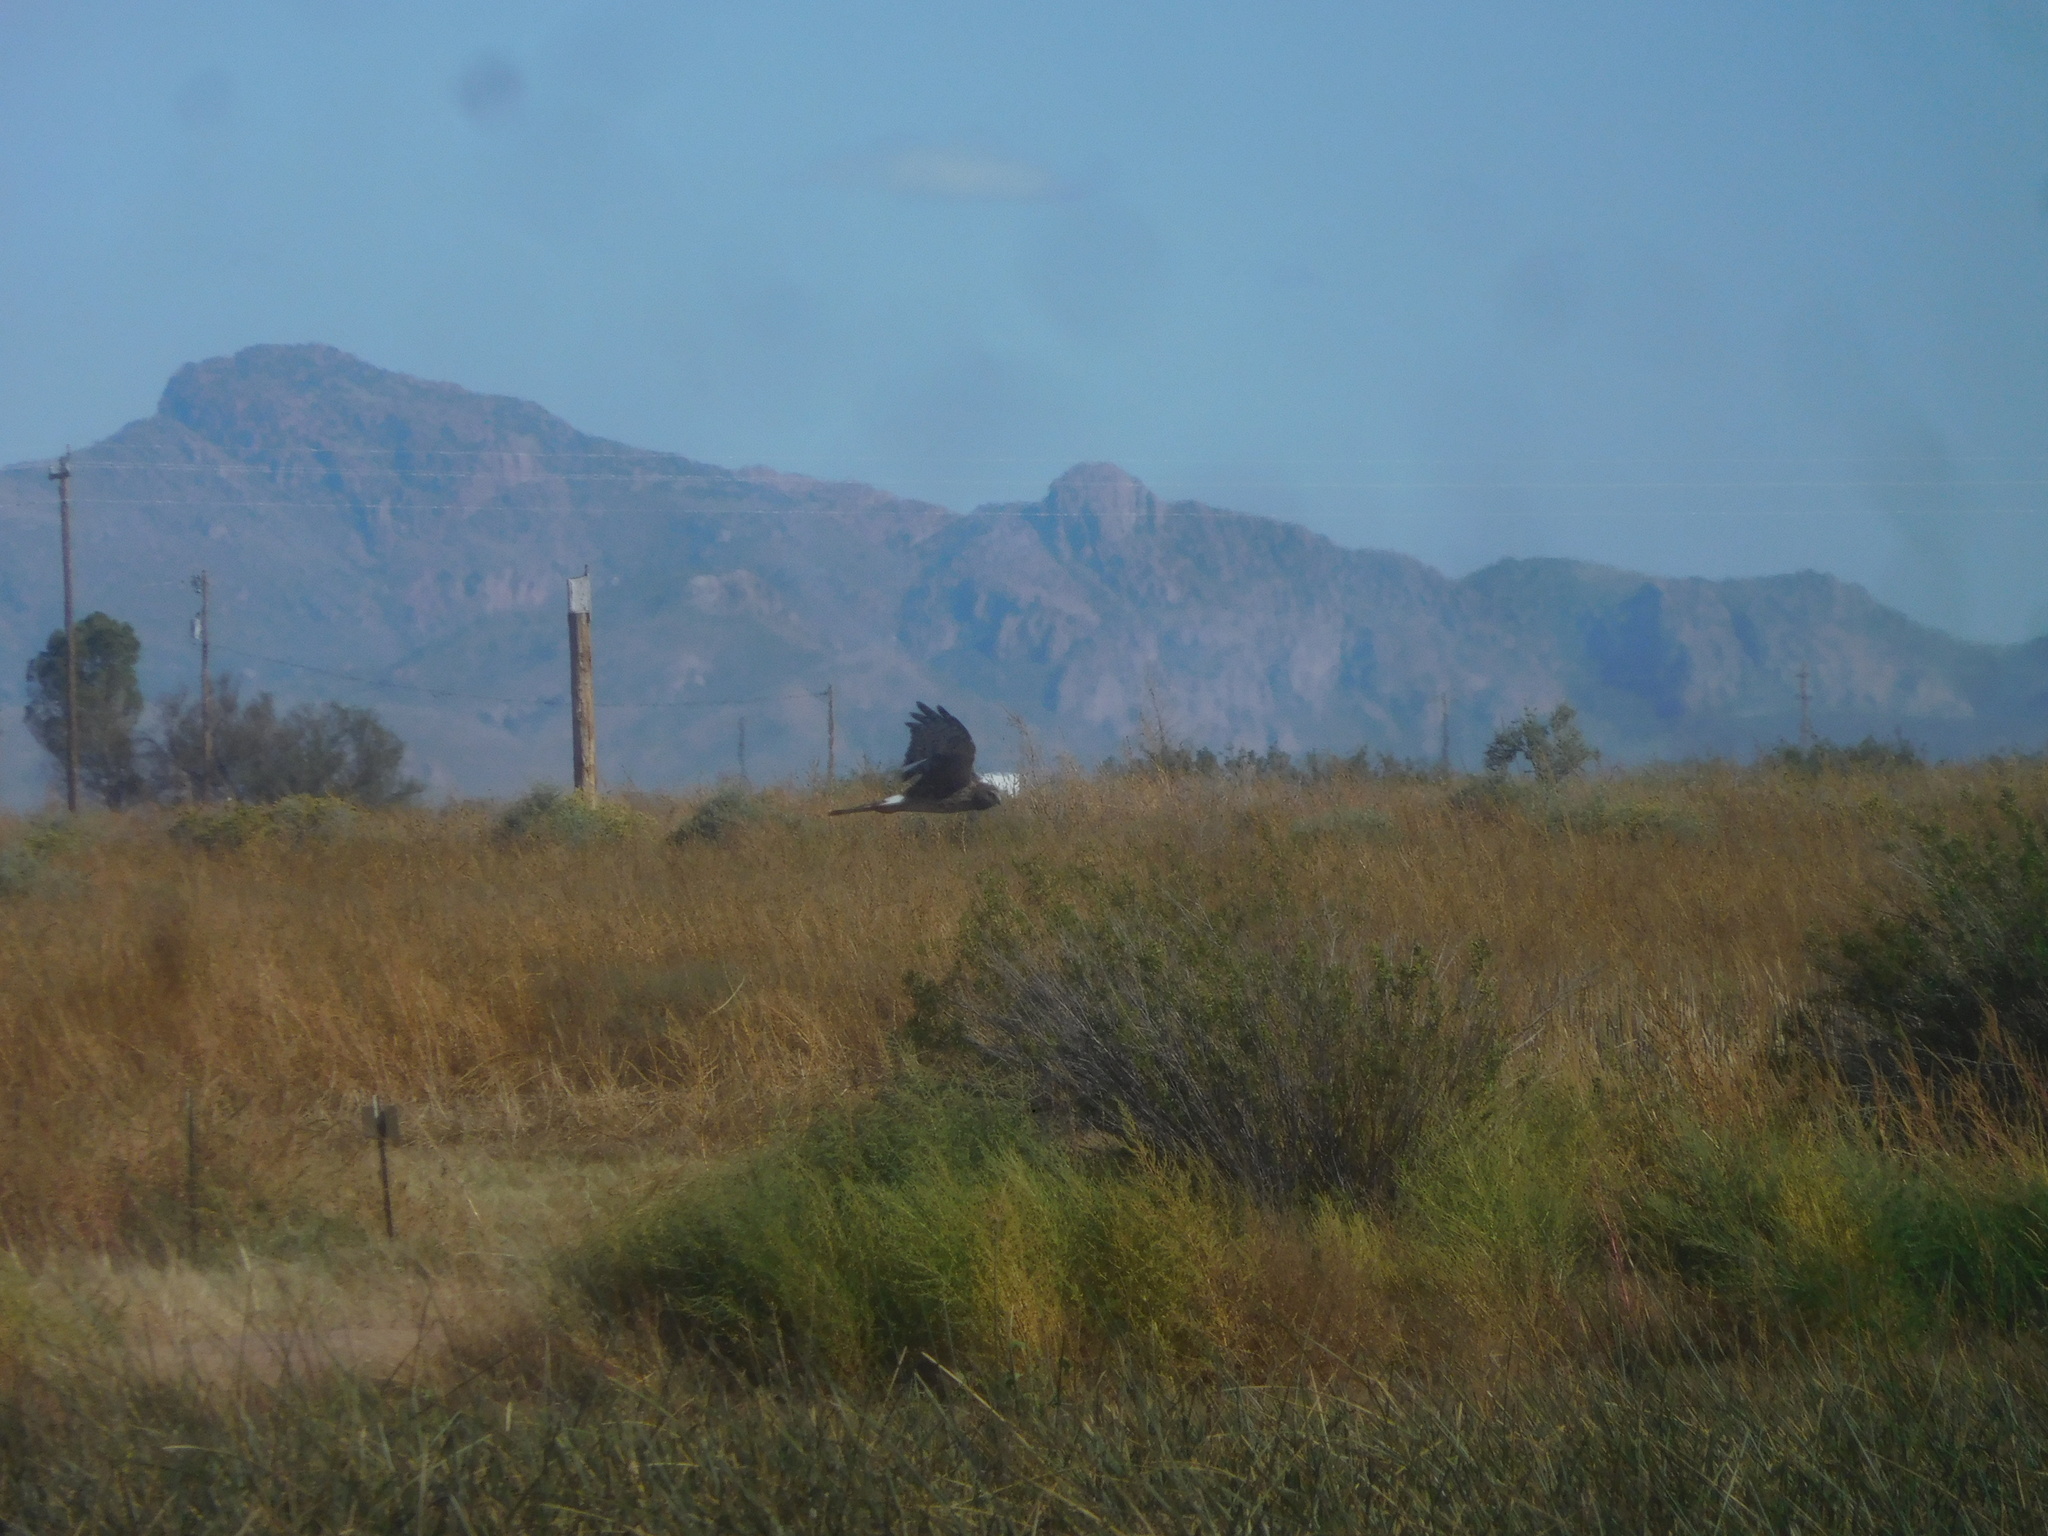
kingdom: Animalia
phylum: Chordata
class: Aves
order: Accipitriformes
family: Accipitridae
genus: Circus
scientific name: Circus cyaneus
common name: Hen harrier
